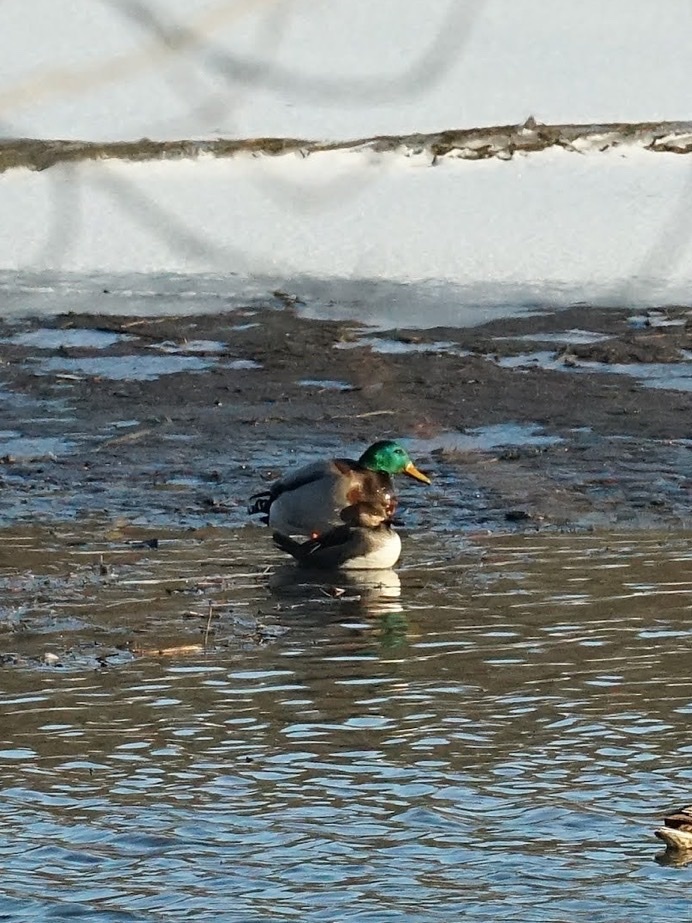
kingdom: Animalia
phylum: Chordata
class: Aves
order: Anseriformes
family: Anatidae
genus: Lophodytes
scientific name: Lophodytes cucullatus
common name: Hooded merganser
